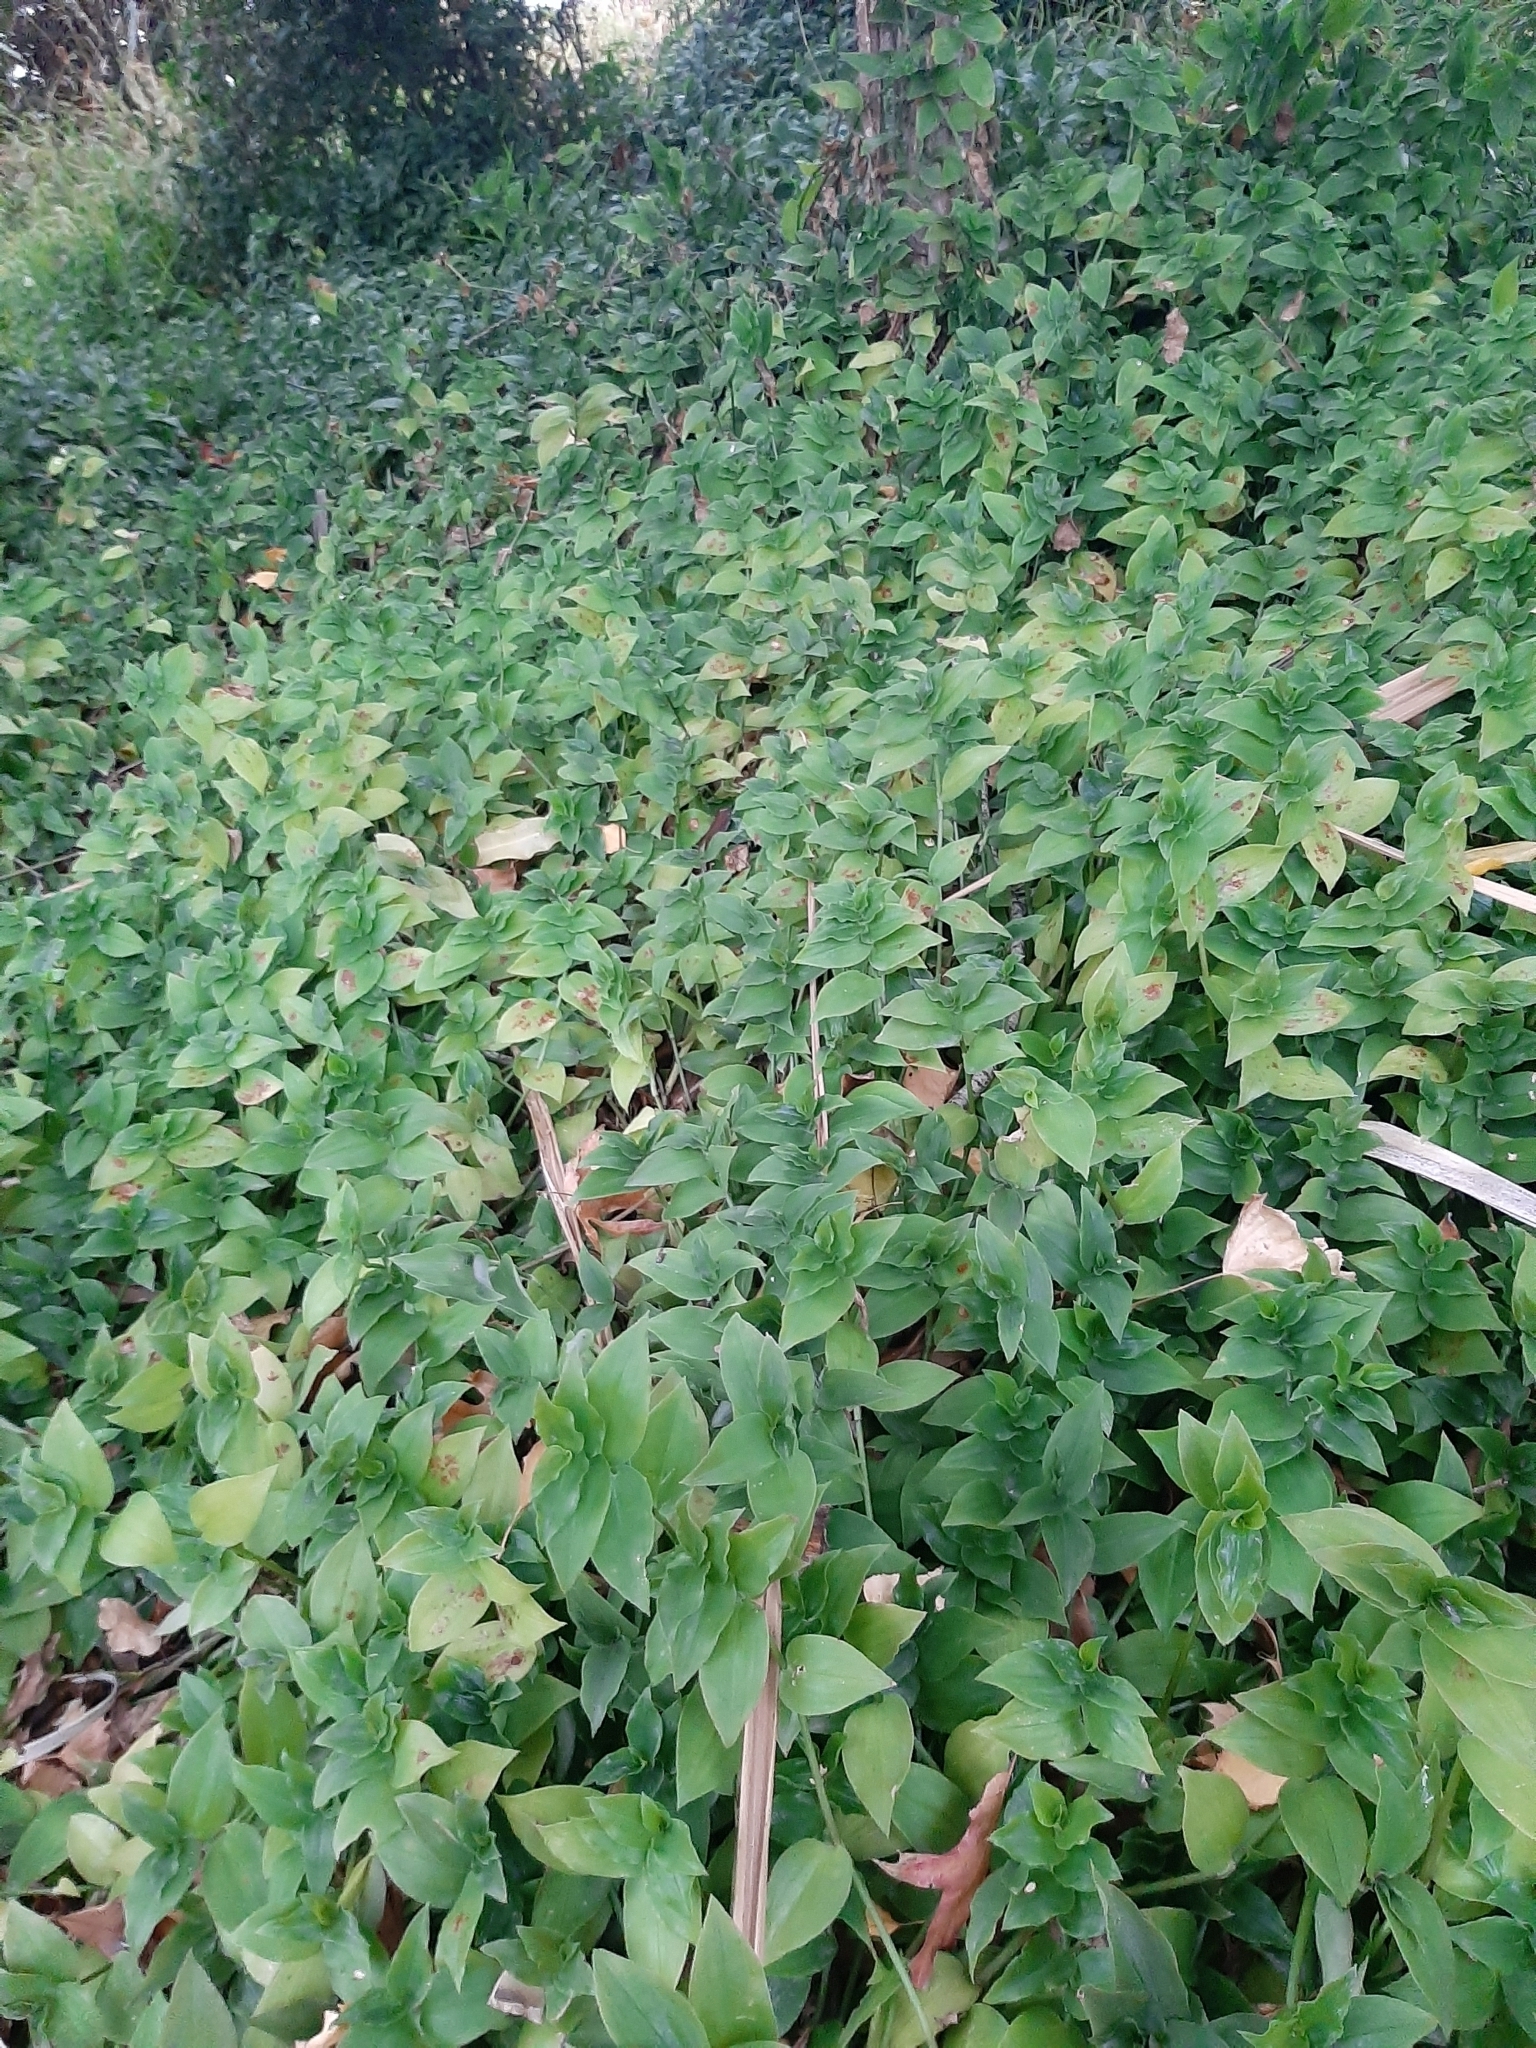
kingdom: Plantae
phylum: Tracheophyta
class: Liliopsida
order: Commelinales
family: Commelinaceae
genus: Tradescantia
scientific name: Tradescantia fluminensis
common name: Wandering-jew
